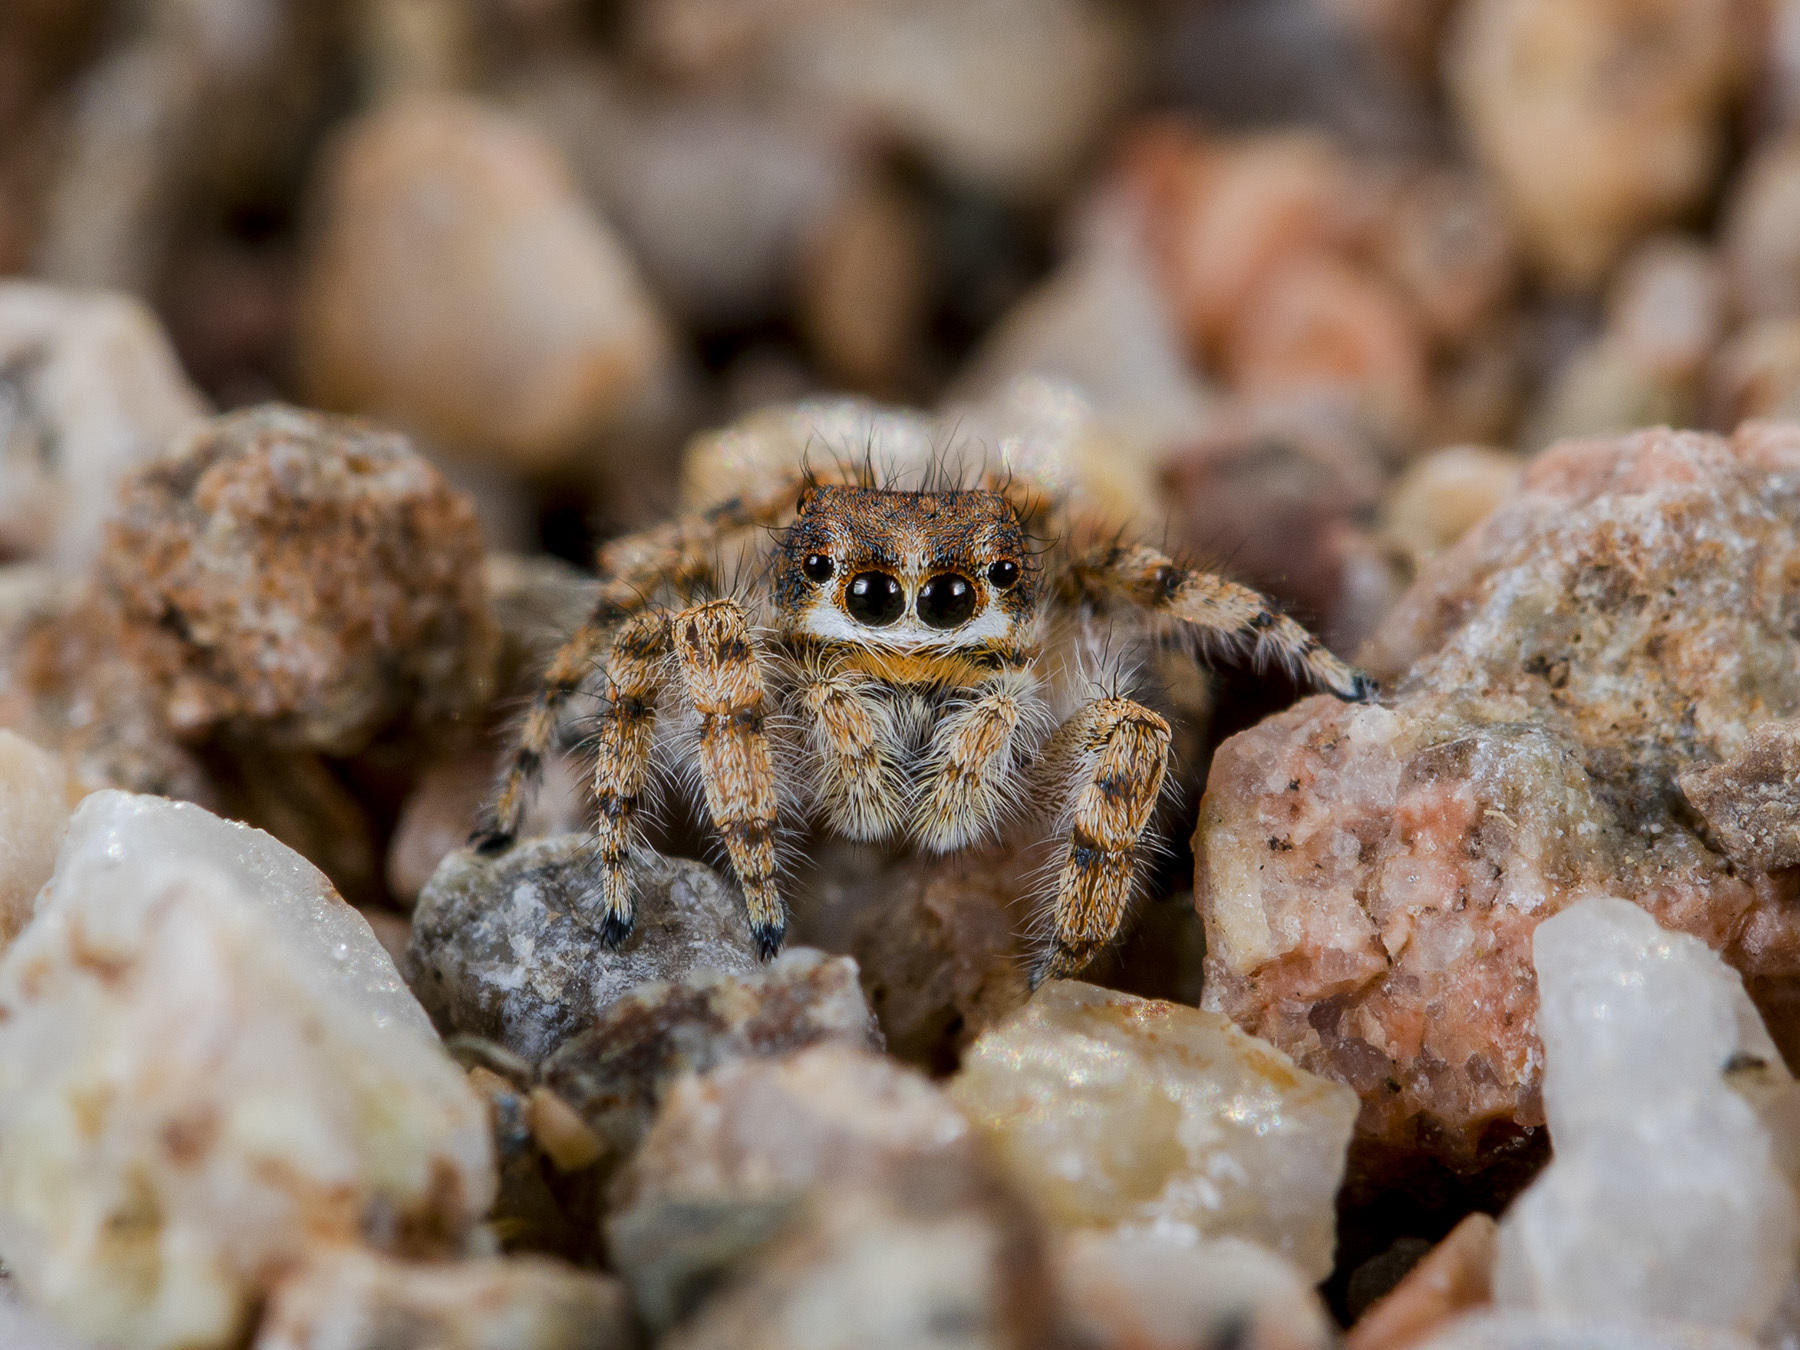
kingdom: Animalia
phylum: Arthropoda
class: Arachnida
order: Araneae
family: Salticidae
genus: Yllenus
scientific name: Yllenus charynensis
